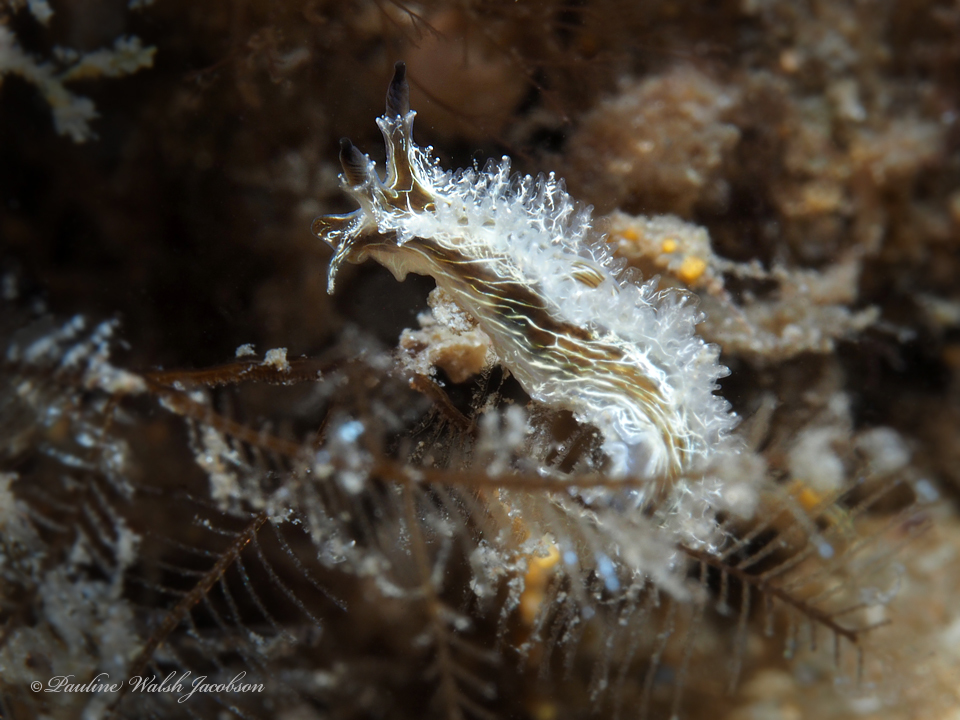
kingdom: Animalia
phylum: Mollusca
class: Gastropoda
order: Nudibranchia
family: Lomanotidae
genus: Lomanotus
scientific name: Lomanotus vermiformis
